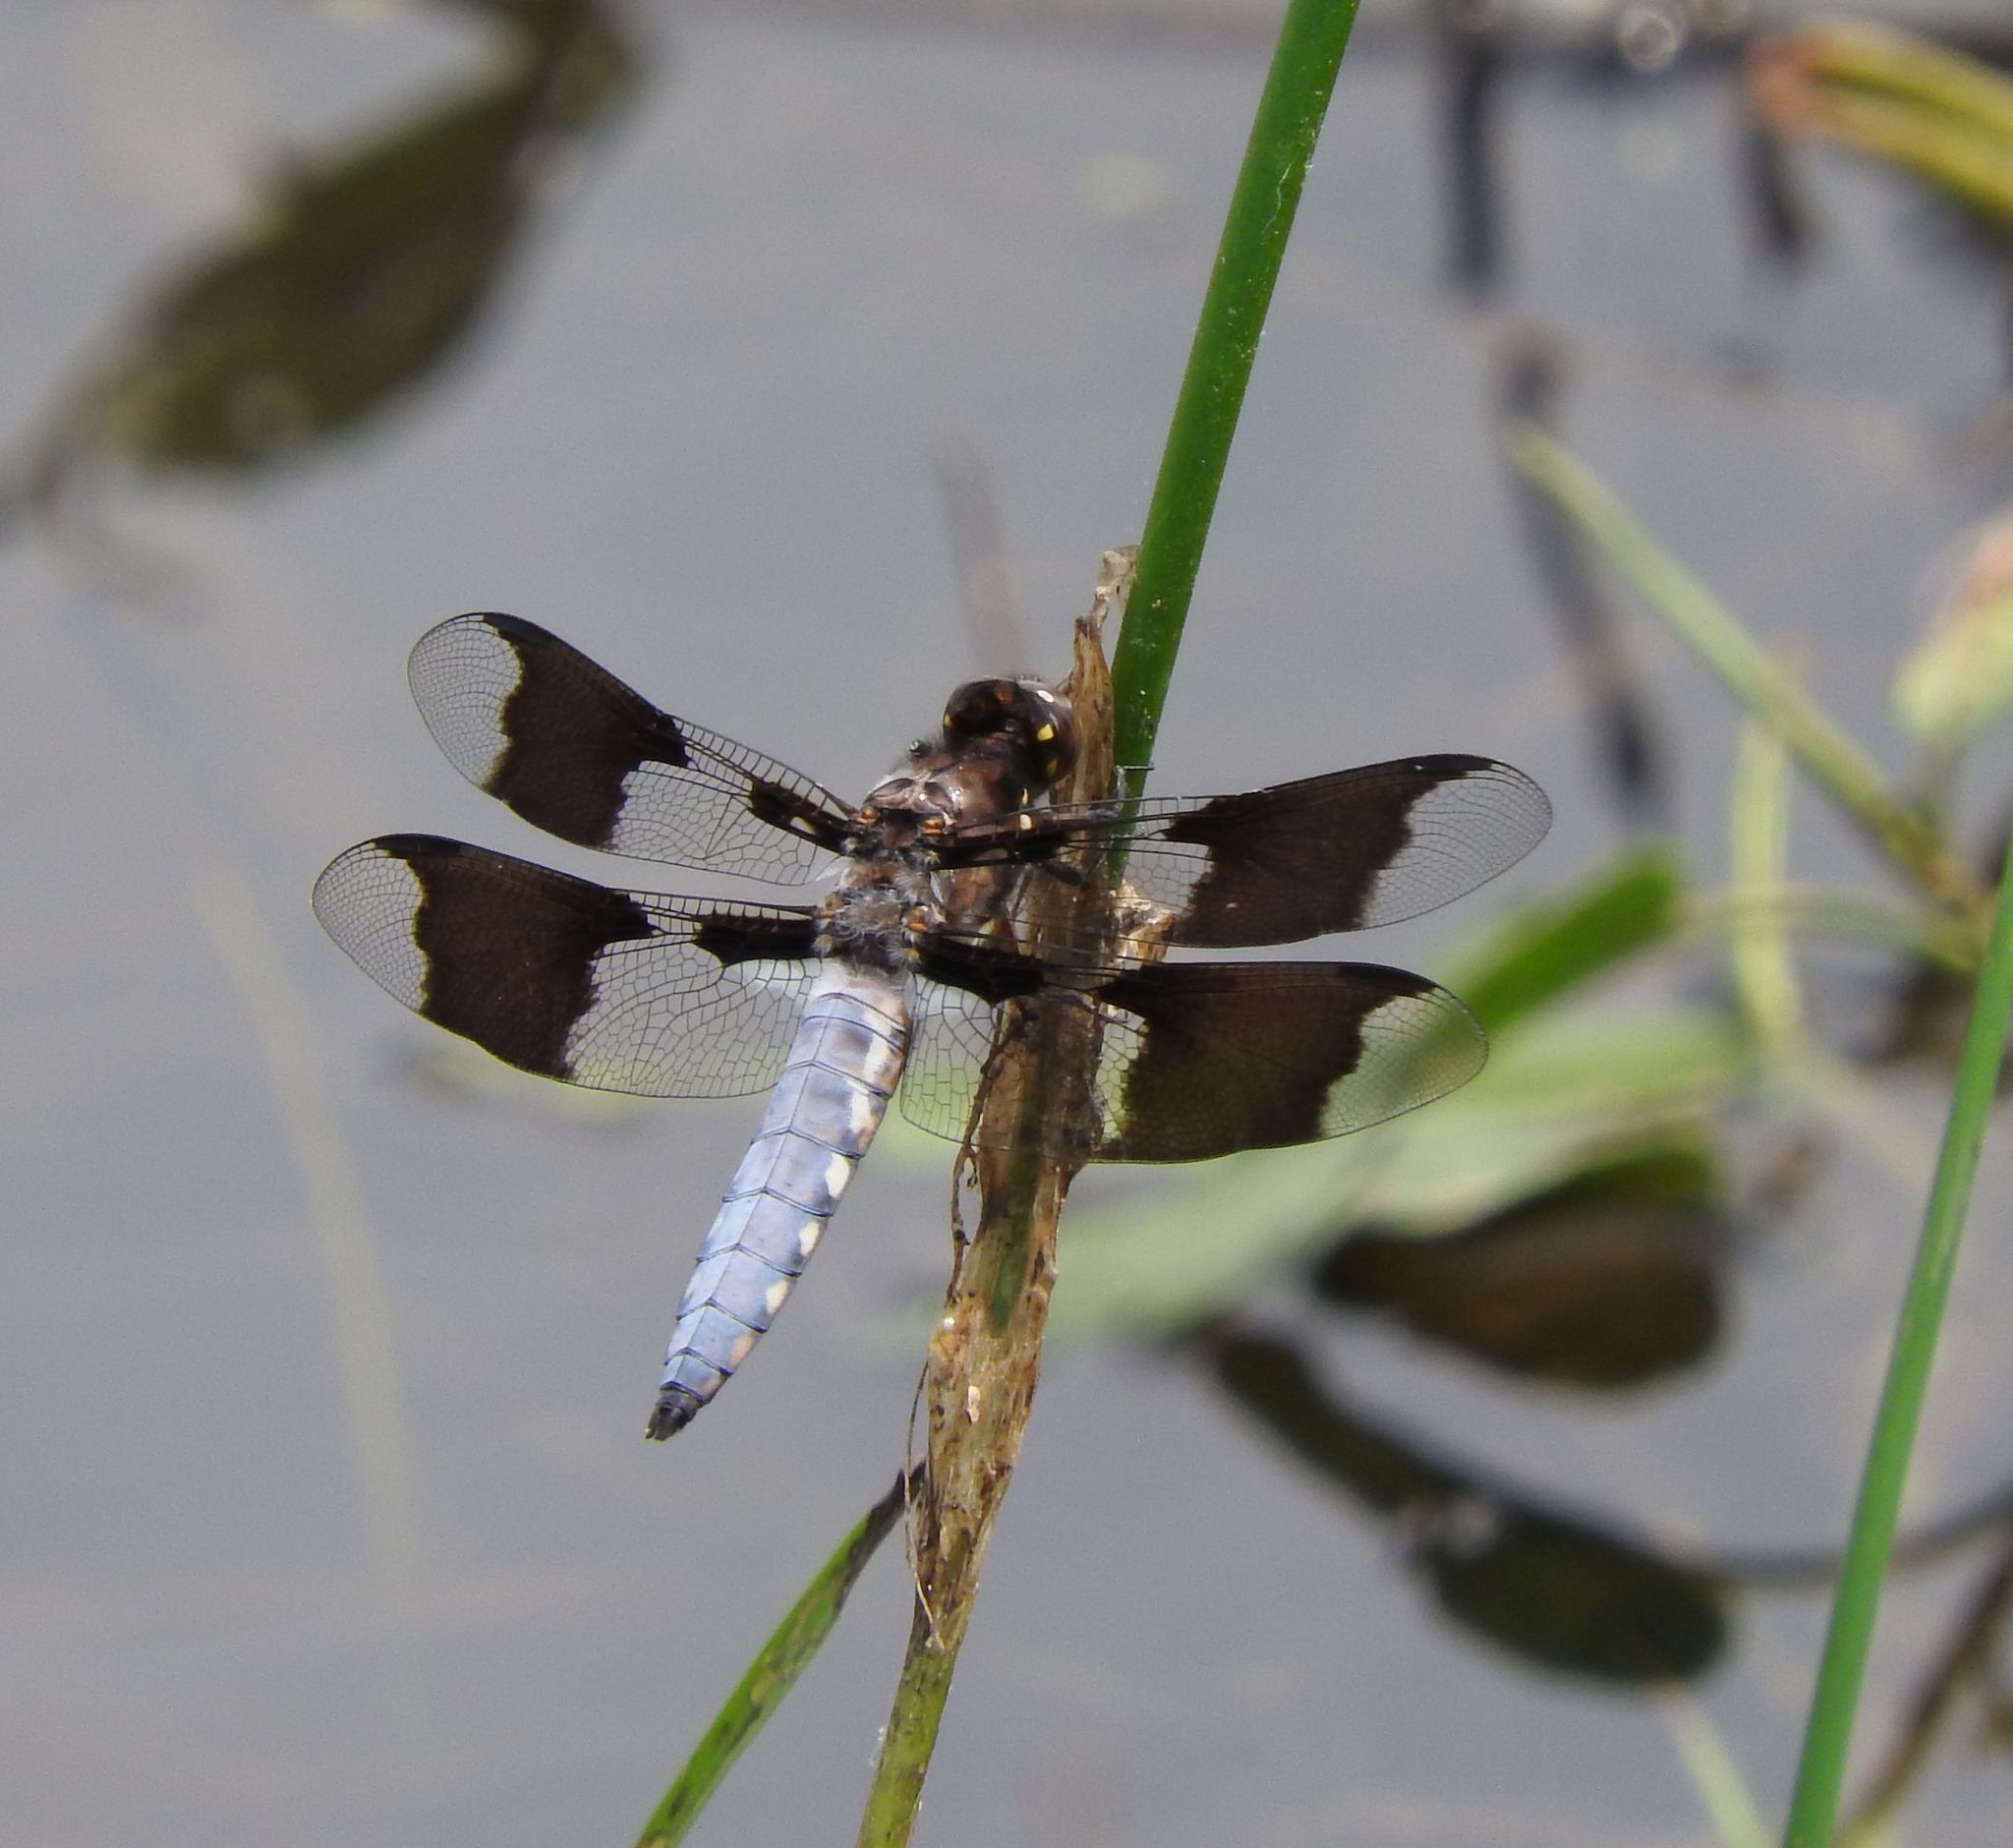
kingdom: Animalia
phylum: Arthropoda
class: Insecta
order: Odonata
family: Libellulidae
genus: Plathemis
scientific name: Plathemis lydia
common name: Common whitetail
